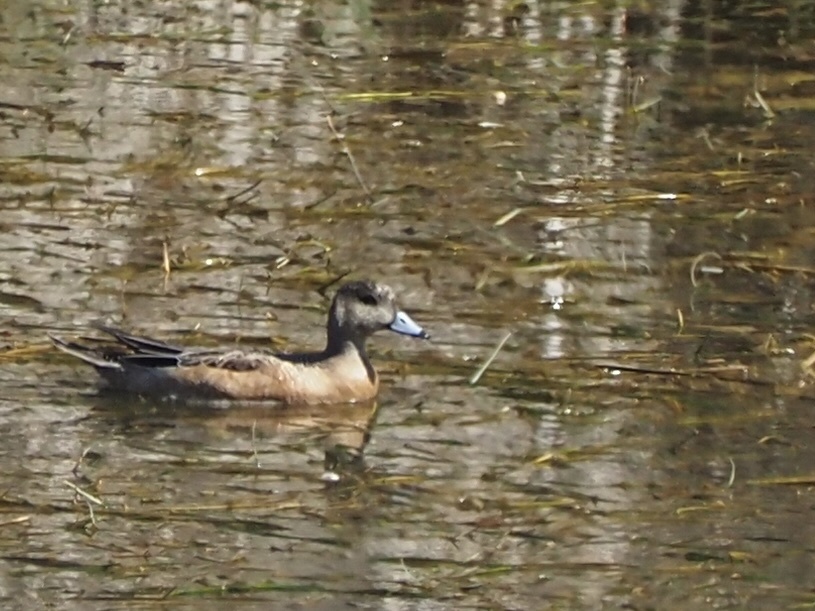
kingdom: Animalia
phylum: Chordata
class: Aves
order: Anseriformes
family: Anatidae
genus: Mareca
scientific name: Mareca americana
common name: American wigeon
